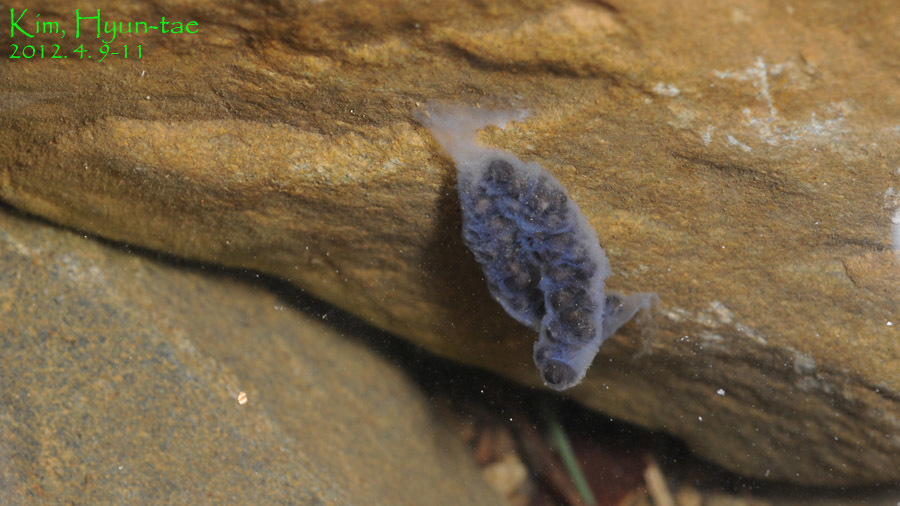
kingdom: Animalia
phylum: Chordata
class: Amphibia
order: Caudata
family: Hynobiidae
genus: Hynobius
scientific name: Hynobius leechii
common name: Gensan salamander
